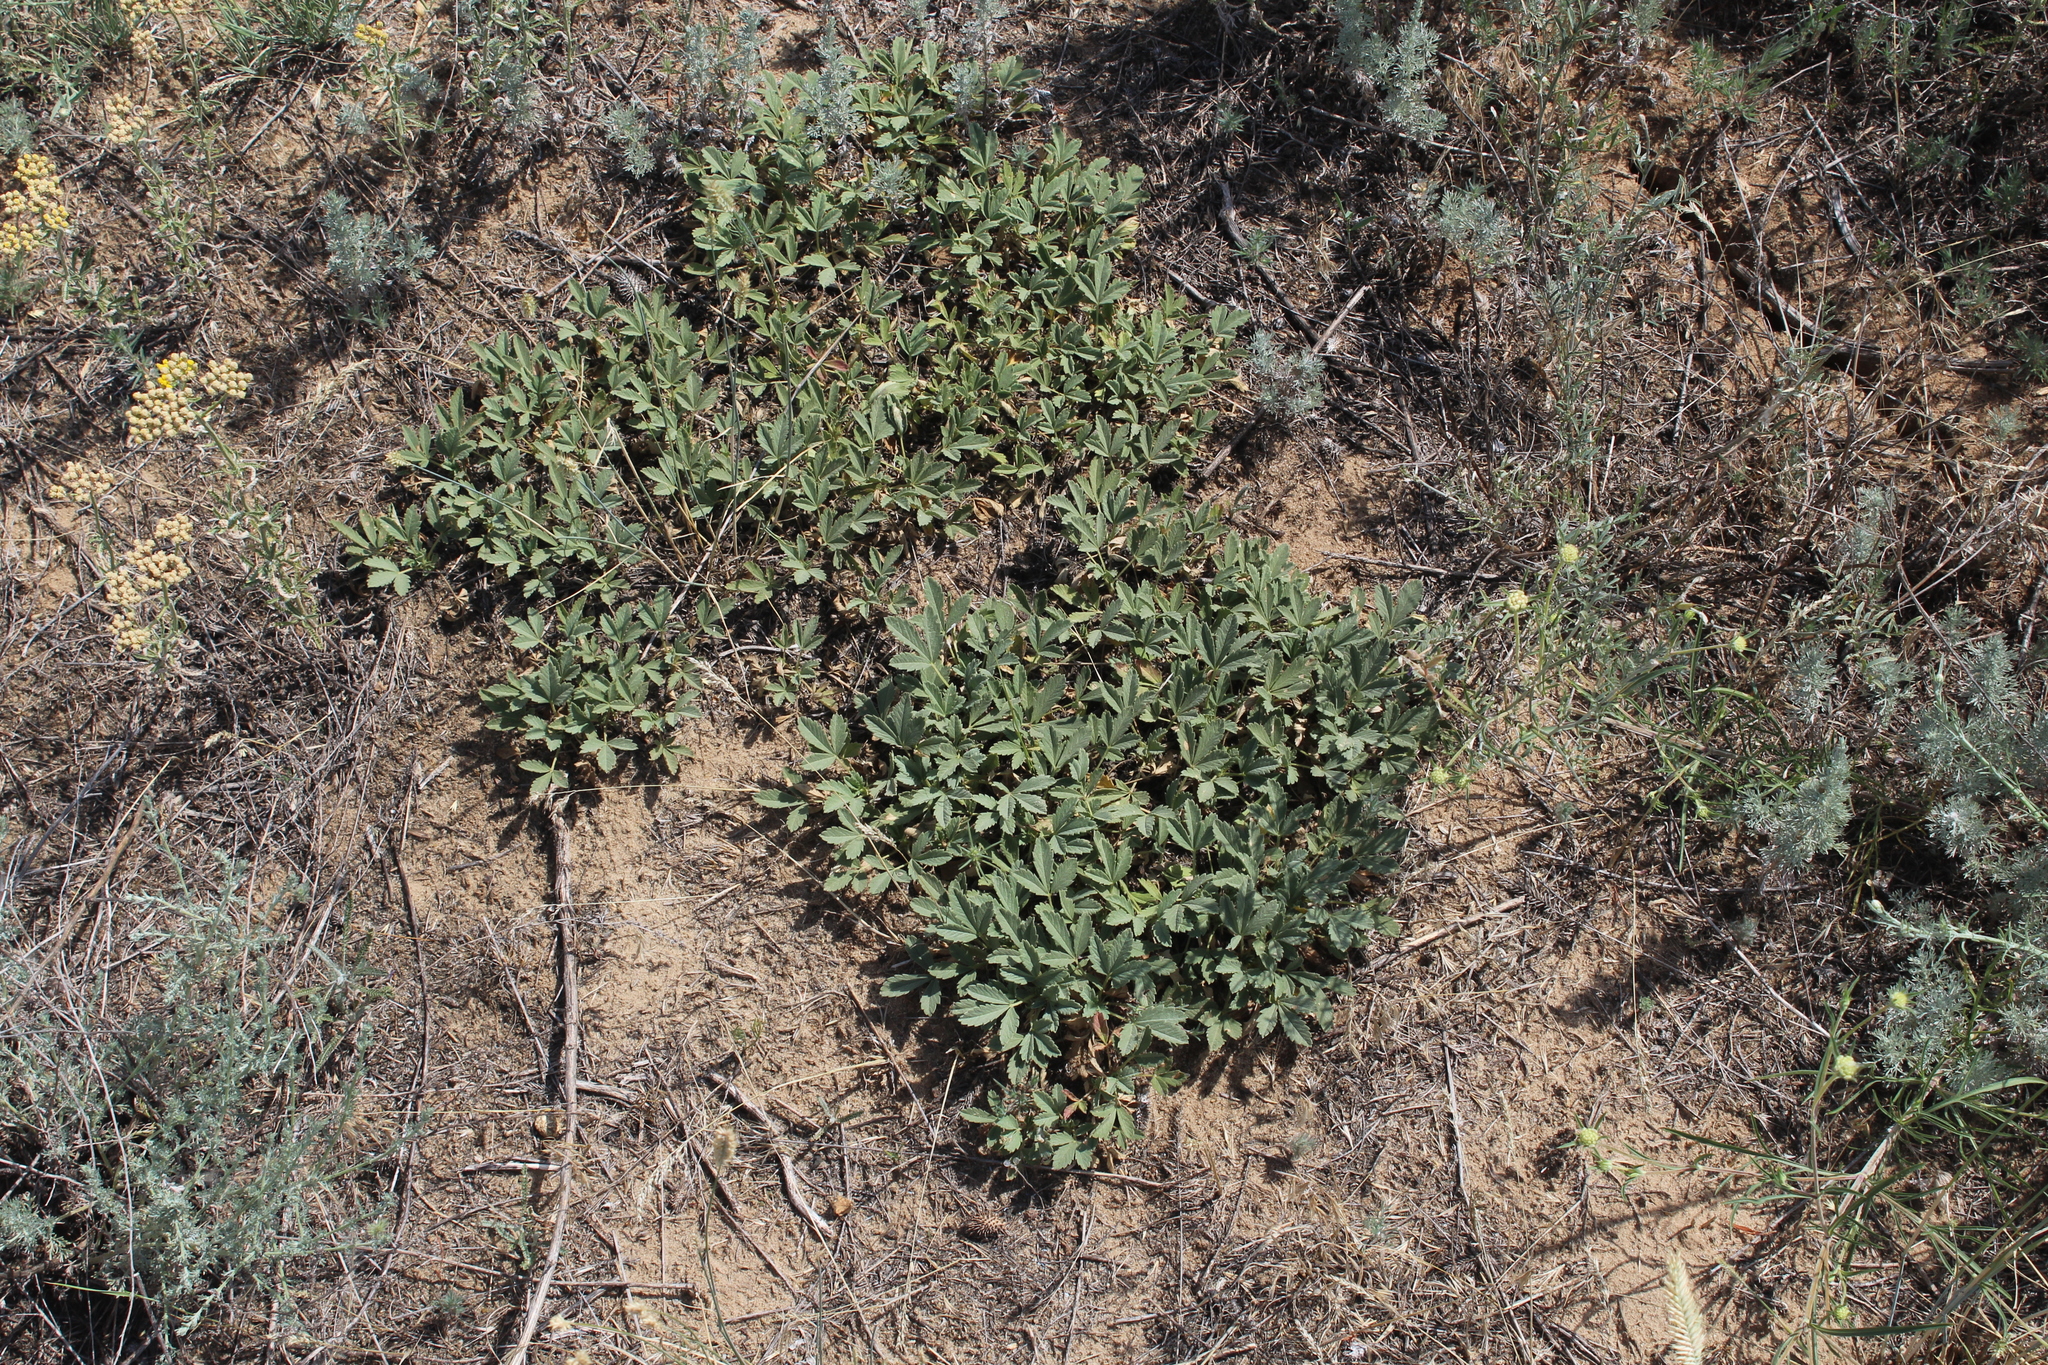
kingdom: Plantae
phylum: Tracheophyta
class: Magnoliopsida
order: Rosales
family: Rosaceae
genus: Potentilla
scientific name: Potentilla incana
